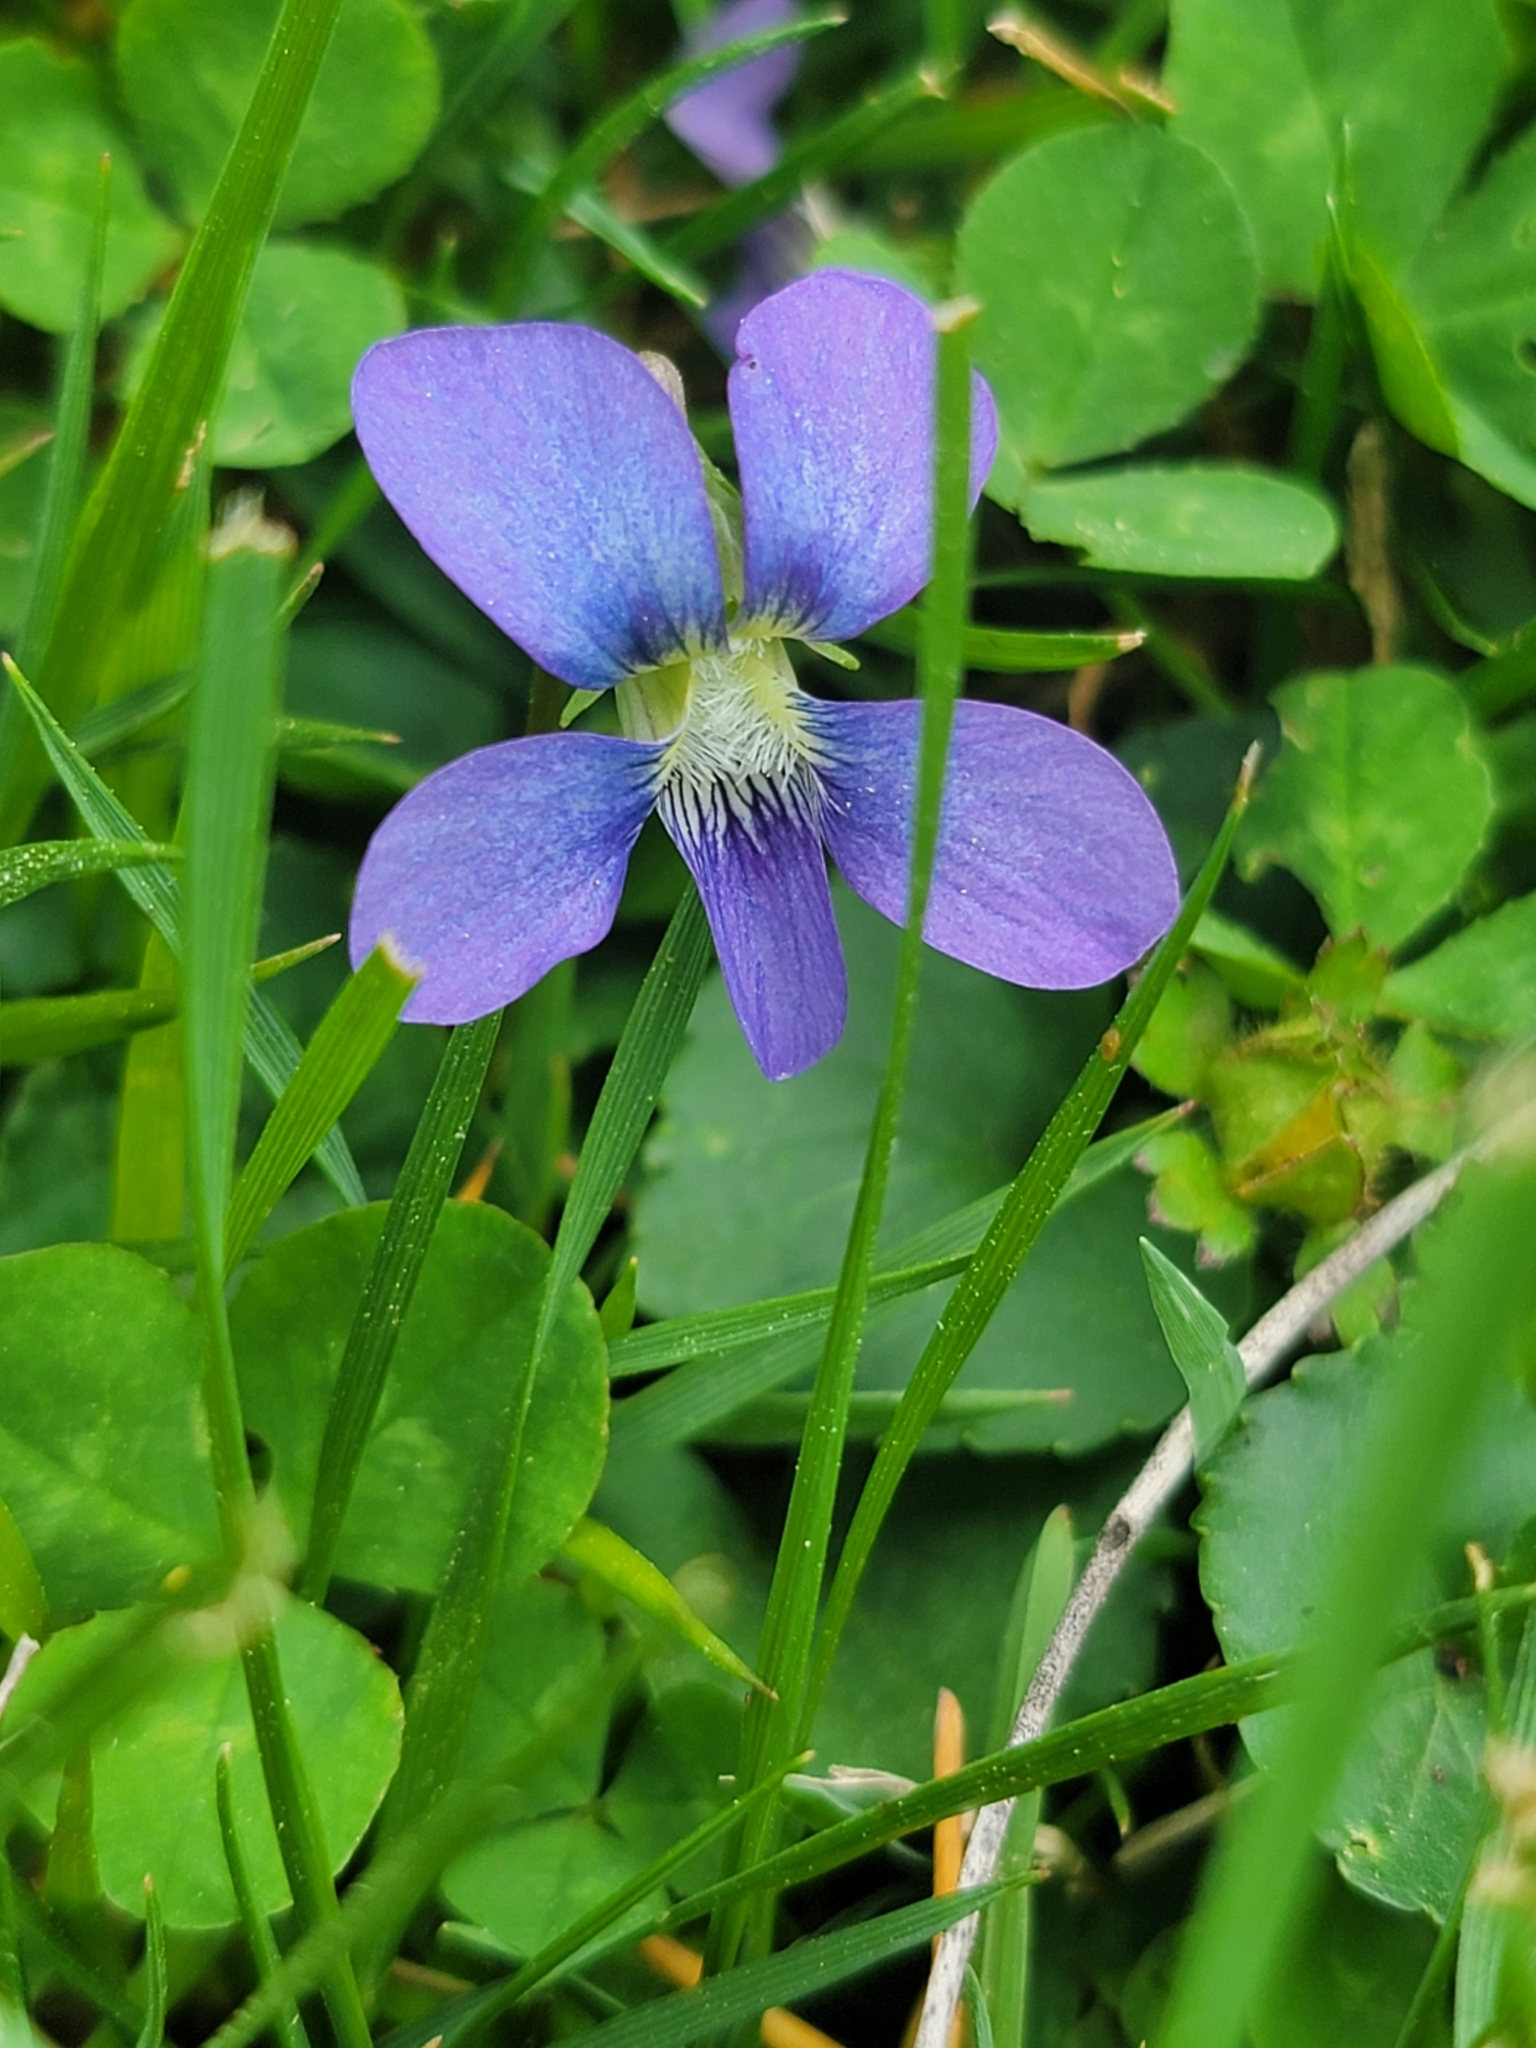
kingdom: Plantae
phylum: Tracheophyta
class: Magnoliopsida
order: Malpighiales
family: Violaceae
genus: Viola
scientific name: Viola sororia
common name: Dooryard violet
